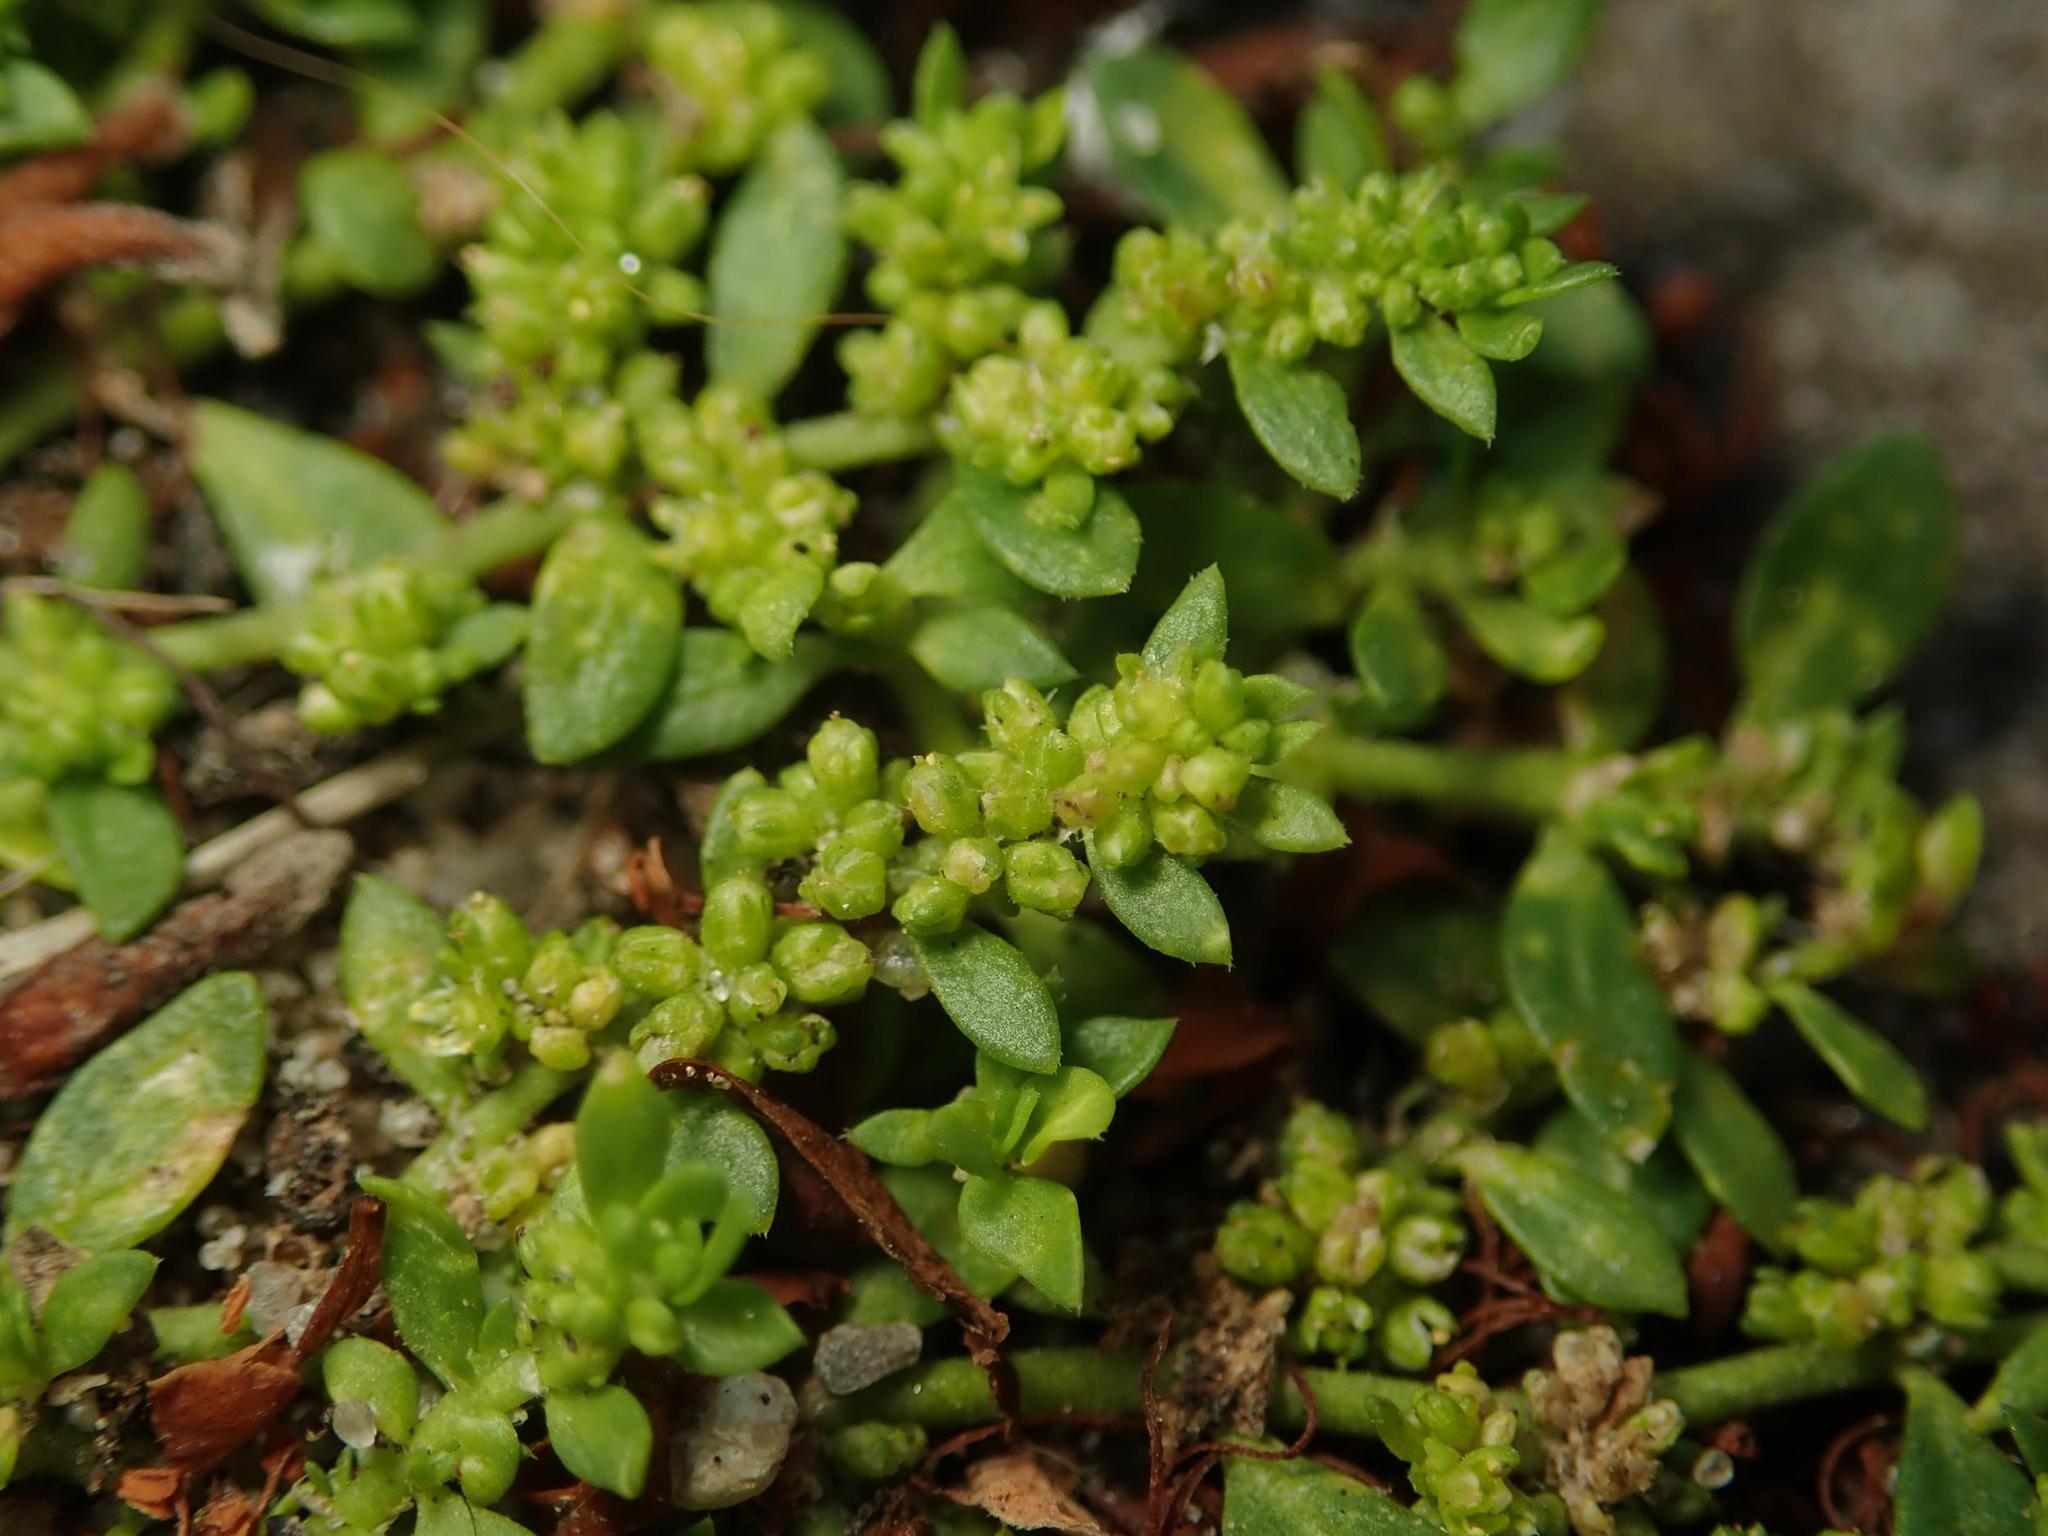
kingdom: Plantae
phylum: Tracheophyta
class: Magnoliopsida
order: Caryophyllales
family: Caryophyllaceae
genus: Herniaria
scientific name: Herniaria glabra
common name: Smooth rupturewort
